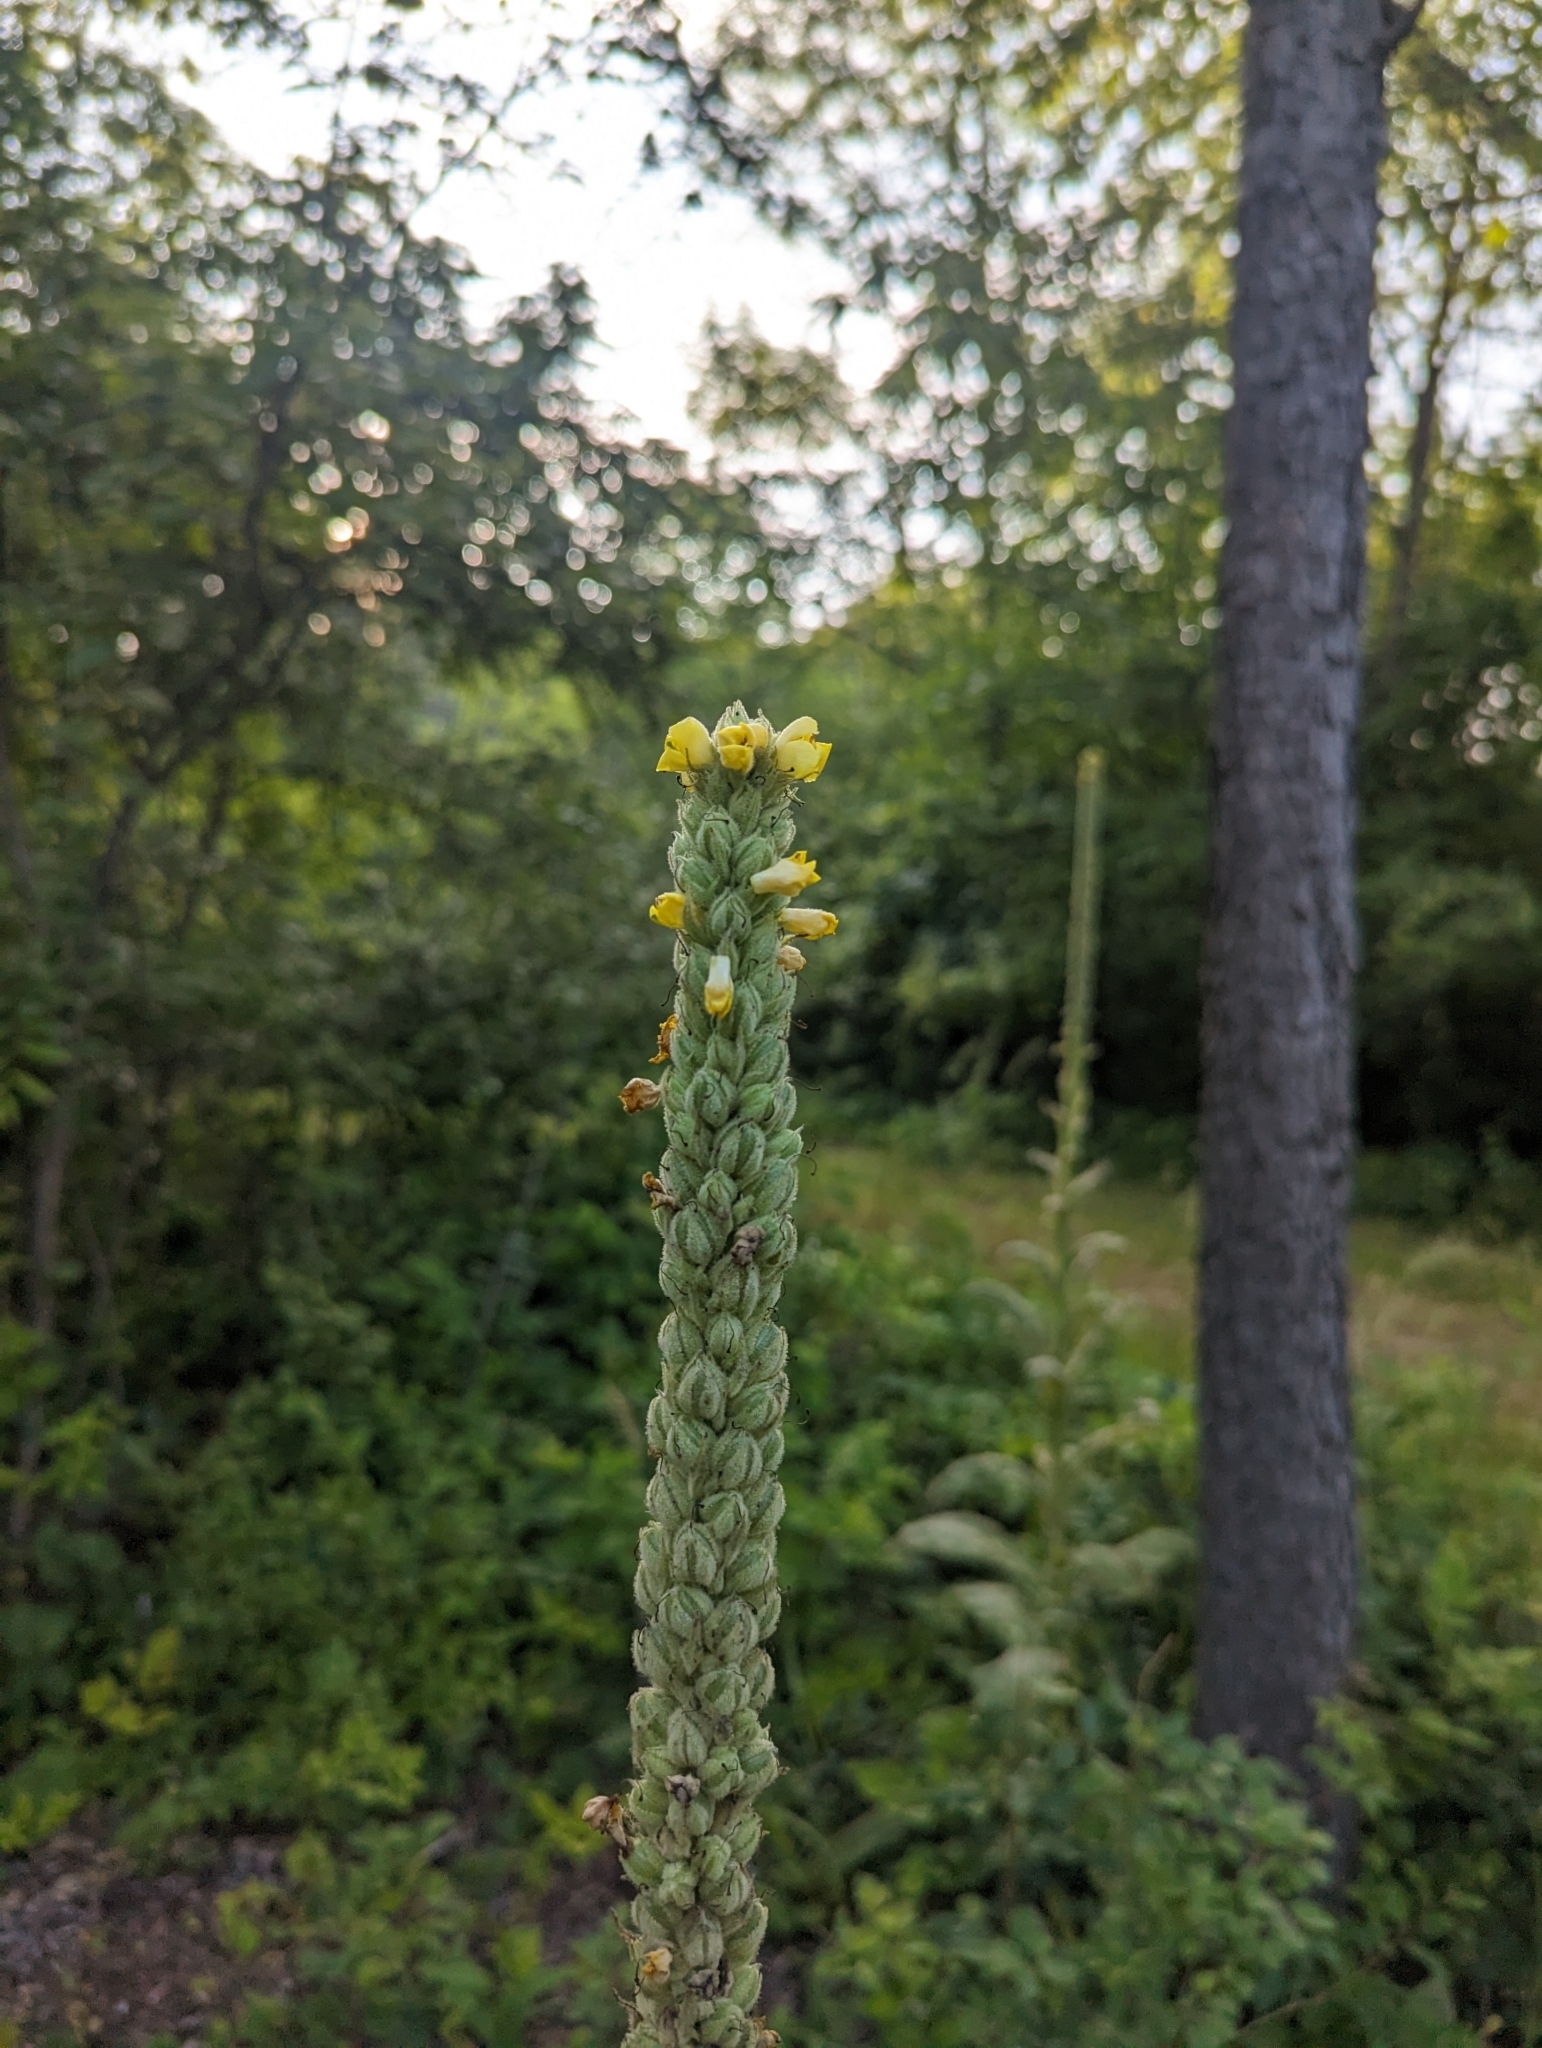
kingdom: Plantae
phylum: Tracheophyta
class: Magnoliopsida
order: Lamiales
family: Scrophulariaceae
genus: Verbascum
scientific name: Verbascum thapsus
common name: Common mullein
